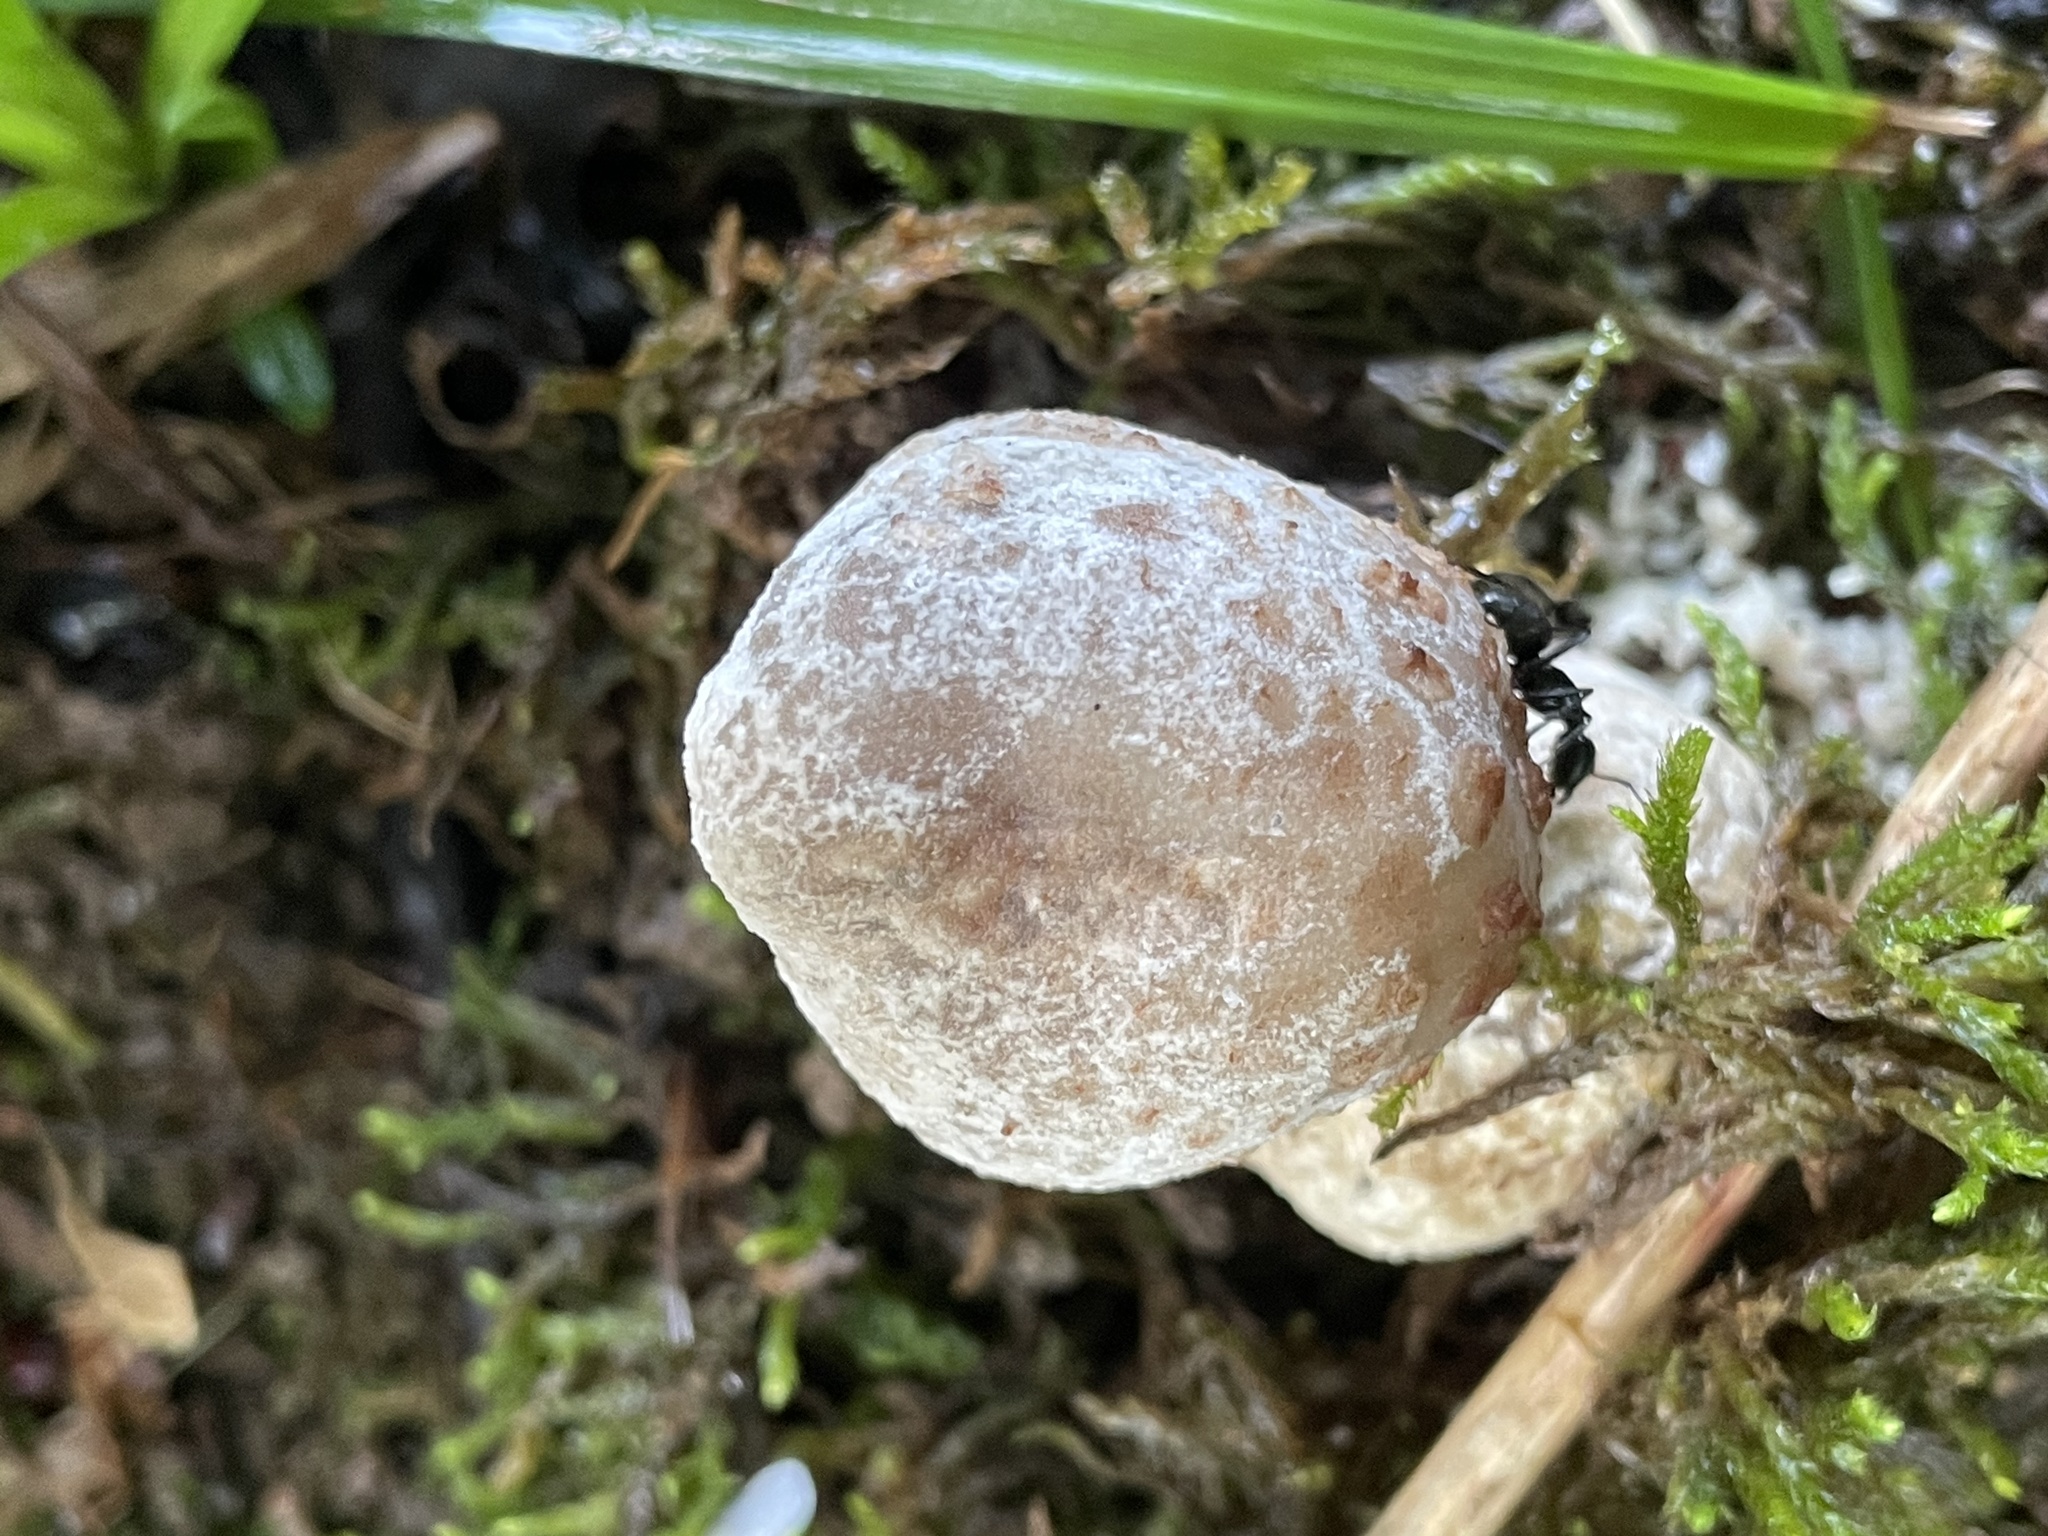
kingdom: Fungi
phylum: Ascomycota
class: Sordariomycetes
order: Hypocreales
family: Hypocreaceae
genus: Hypomyces
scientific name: Hypomyces hyalinus
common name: Amanita mold
